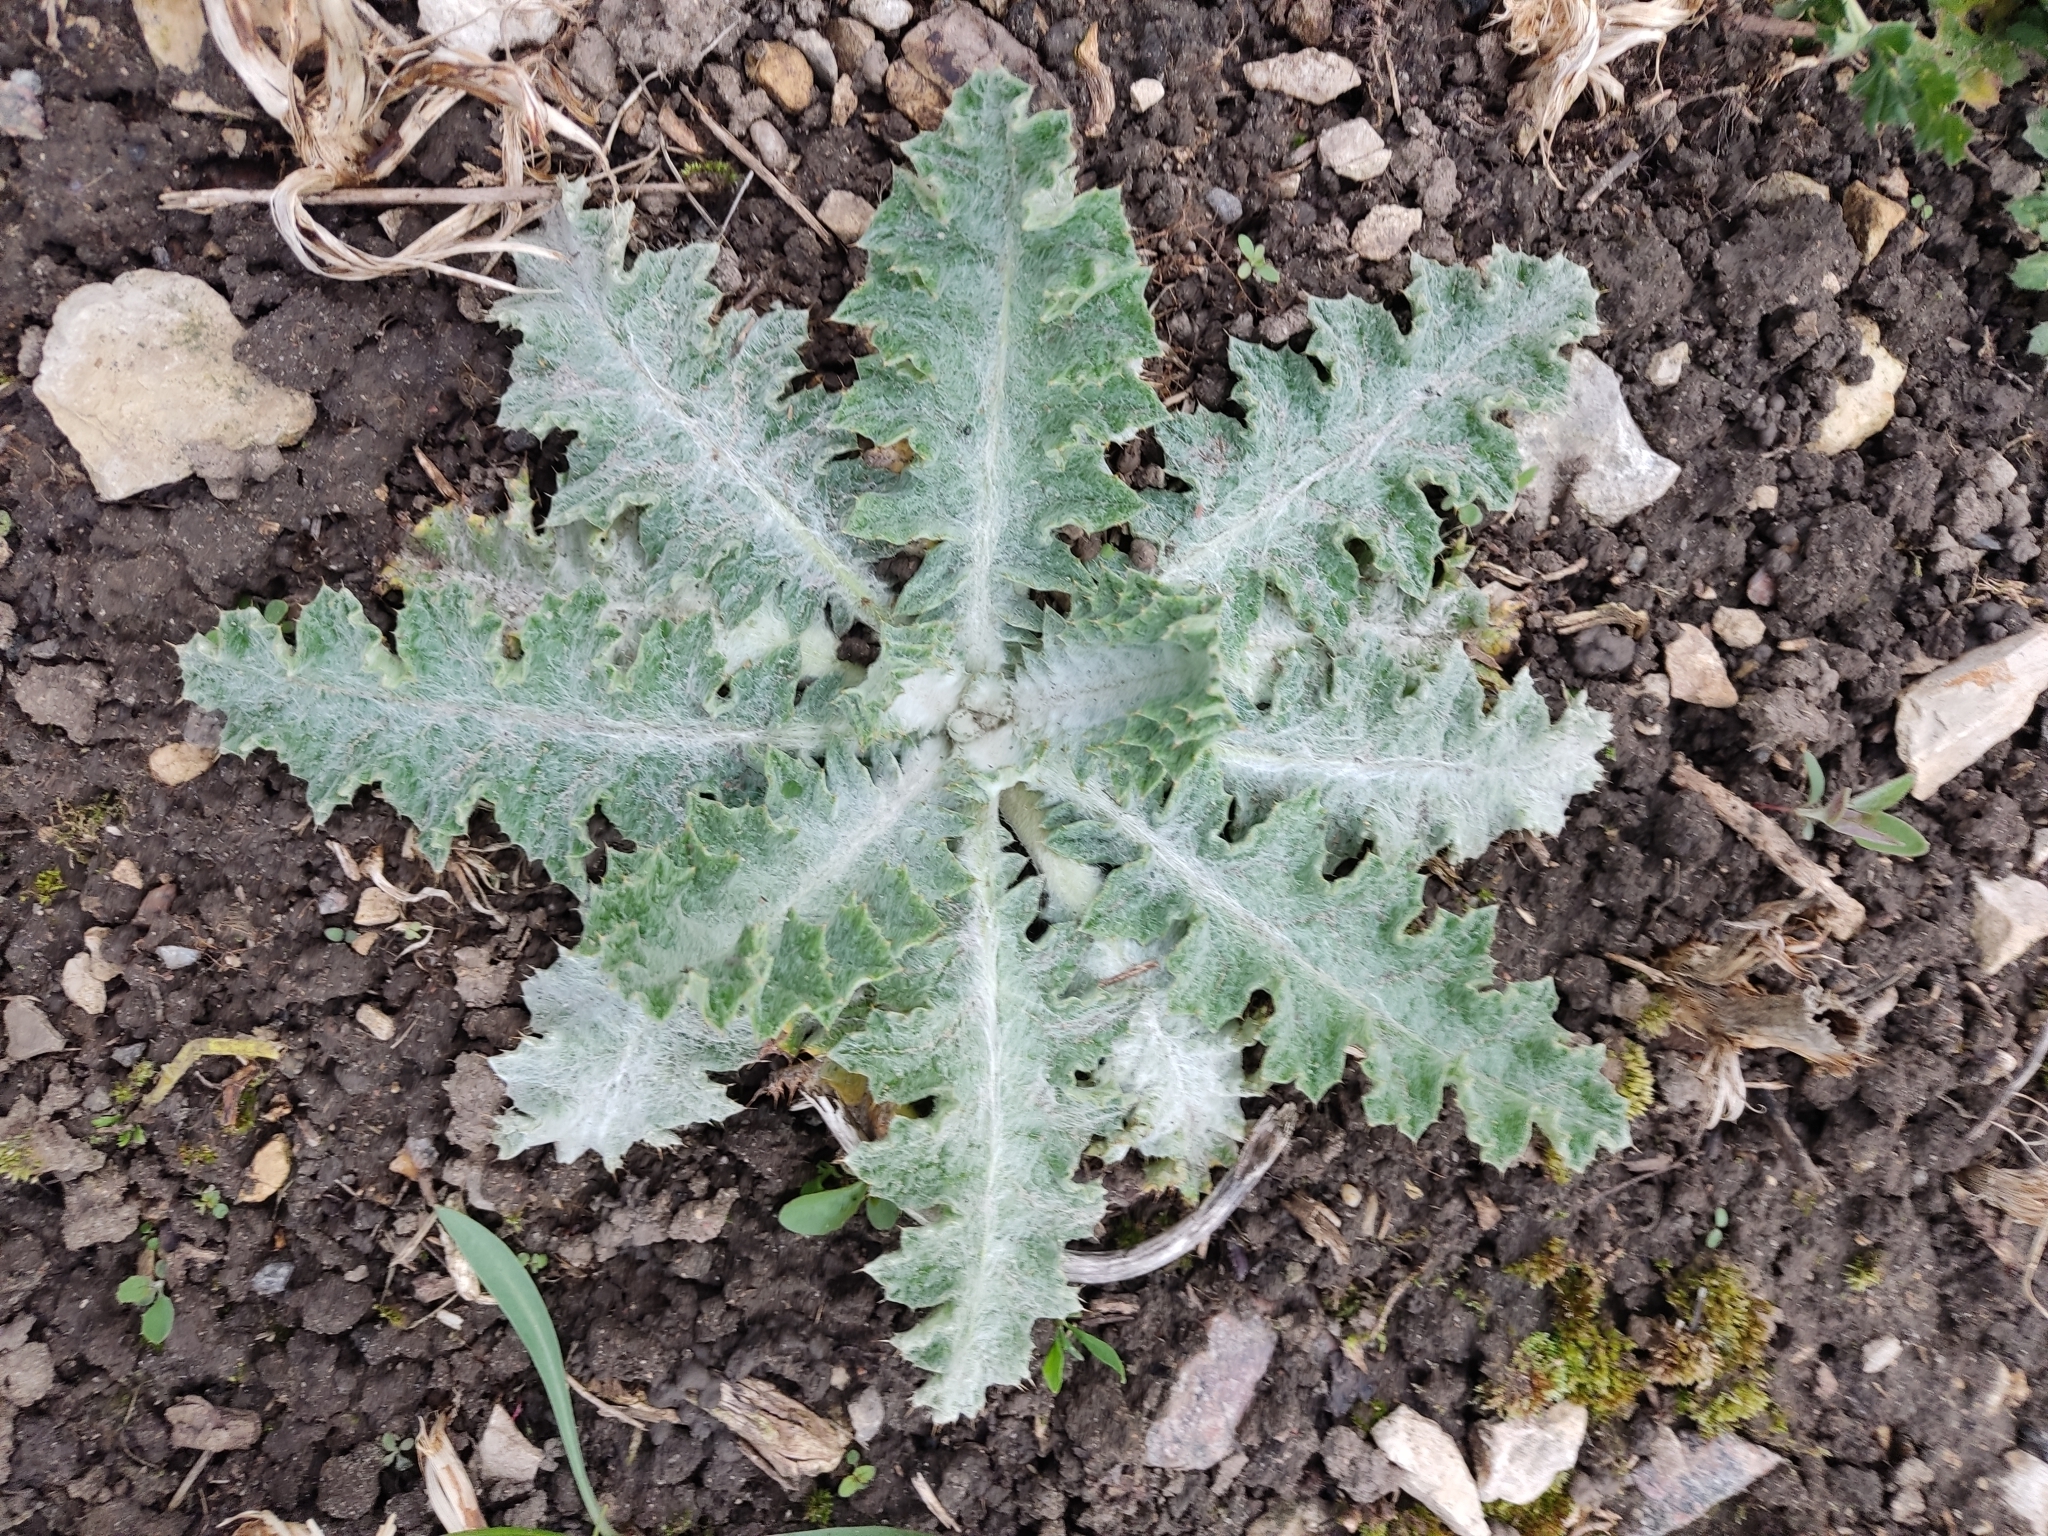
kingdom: Plantae
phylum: Tracheophyta
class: Magnoliopsida
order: Asterales
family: Asteraceae
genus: Onopordum
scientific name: Onopordum acanthium
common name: Scotch thistle
